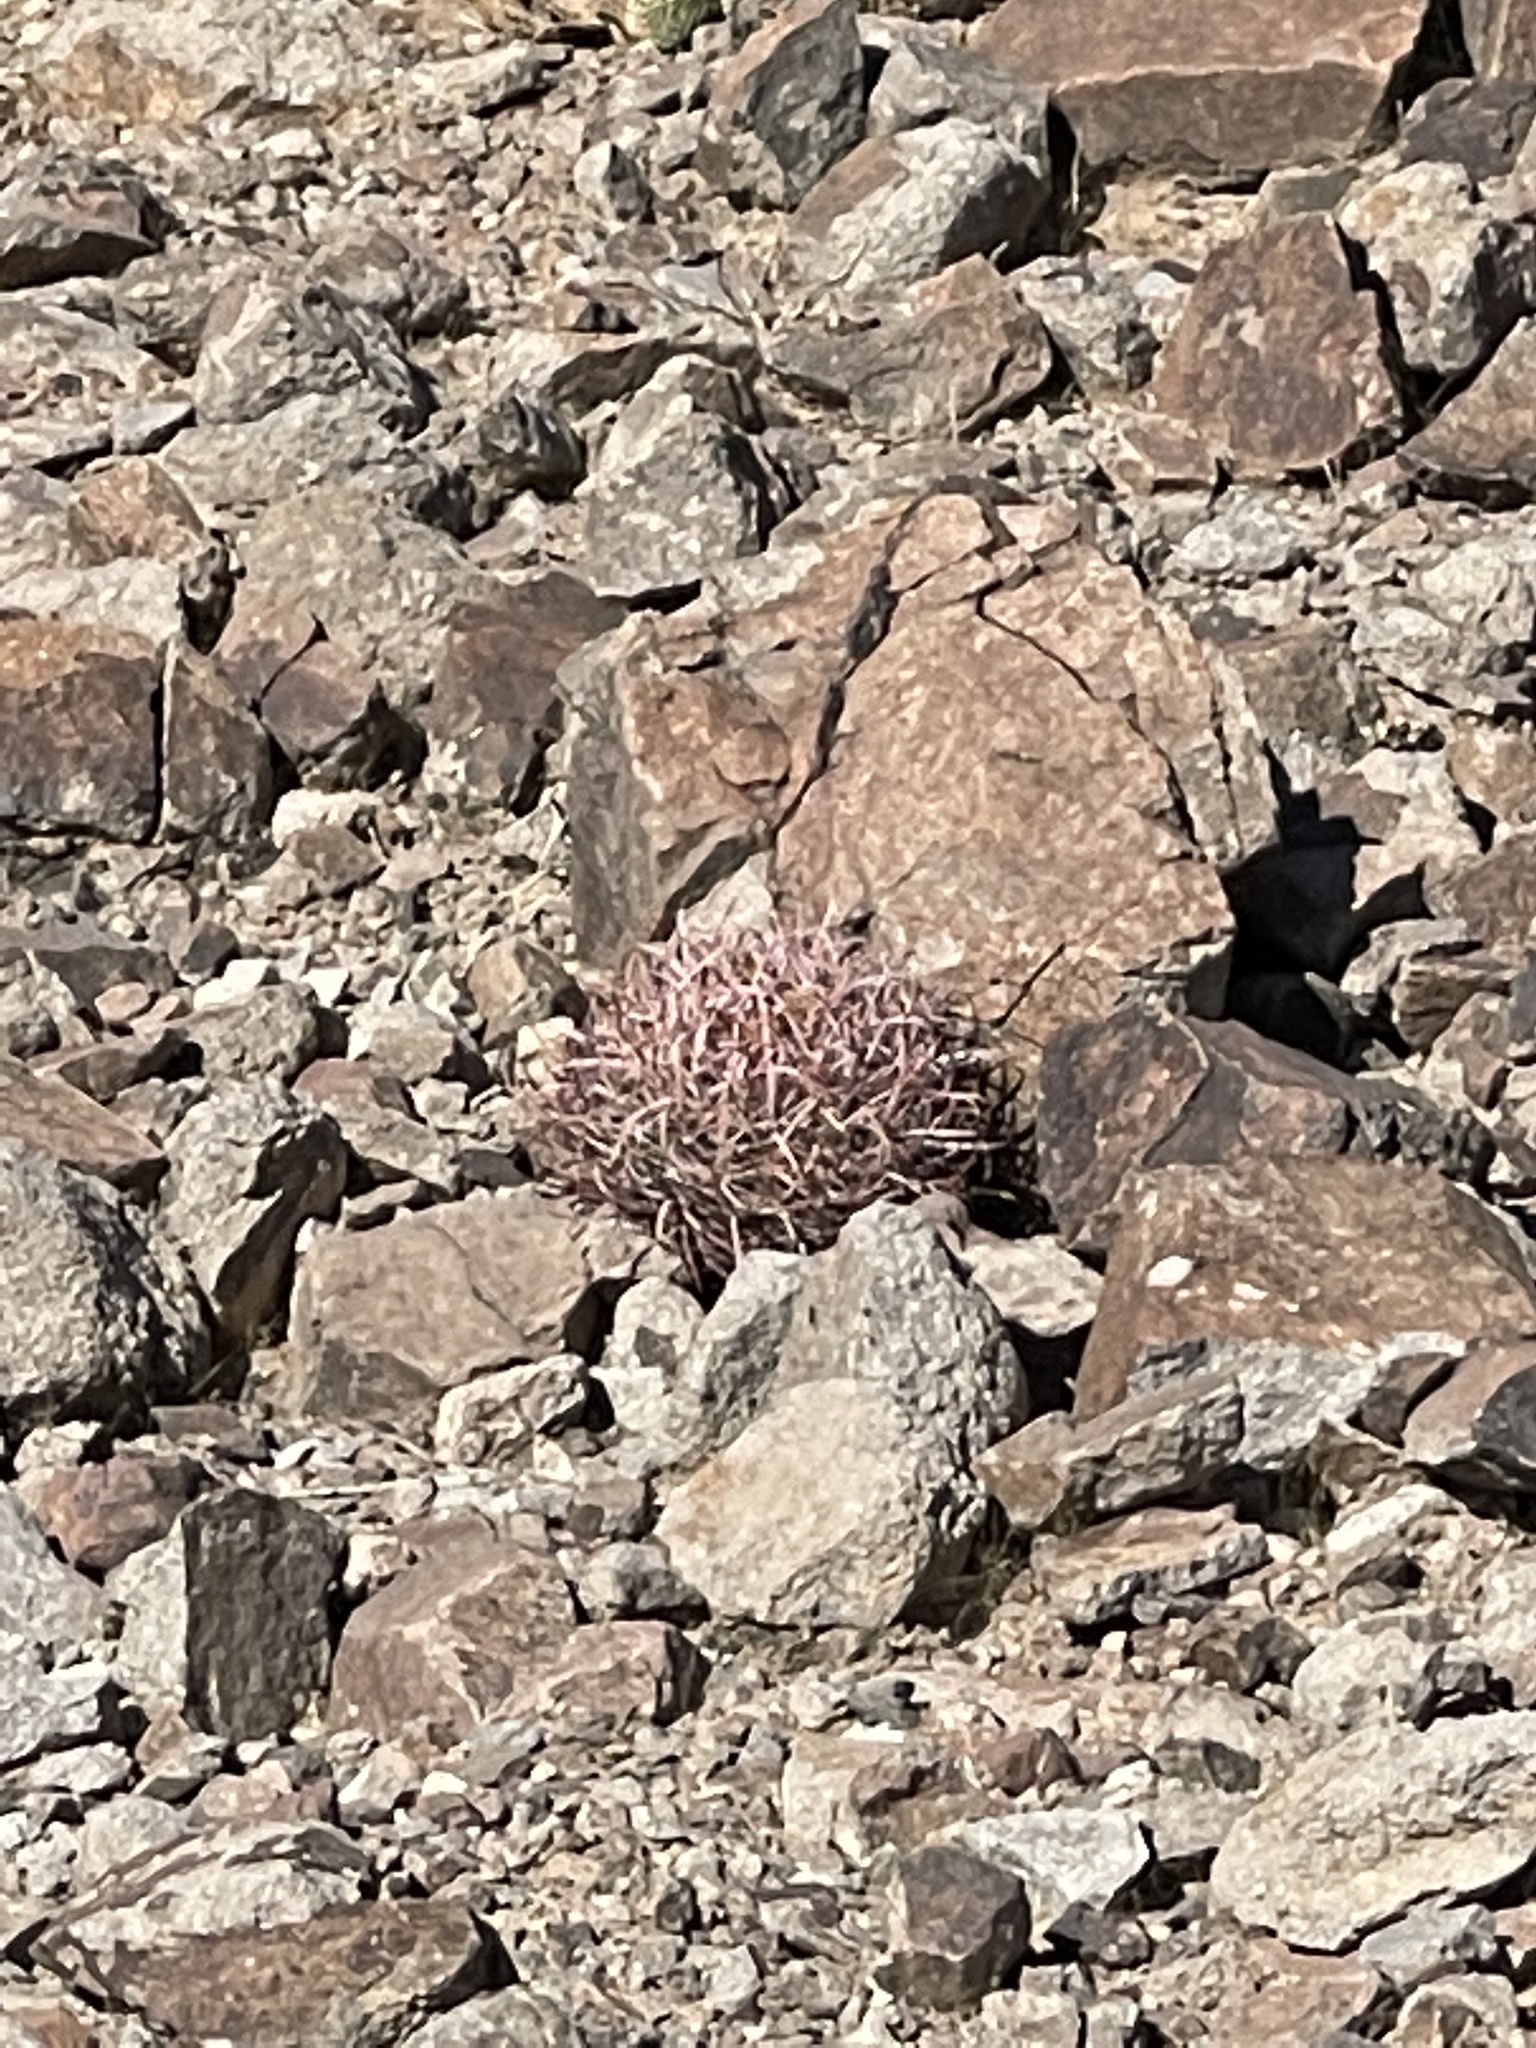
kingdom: Plantae
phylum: Tracheophyta
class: Magnoliopsida
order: Caryophyllales
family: Cactaceae
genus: Ferocactus
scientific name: Ferocactus cylindraceus
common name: California barrel cactus
